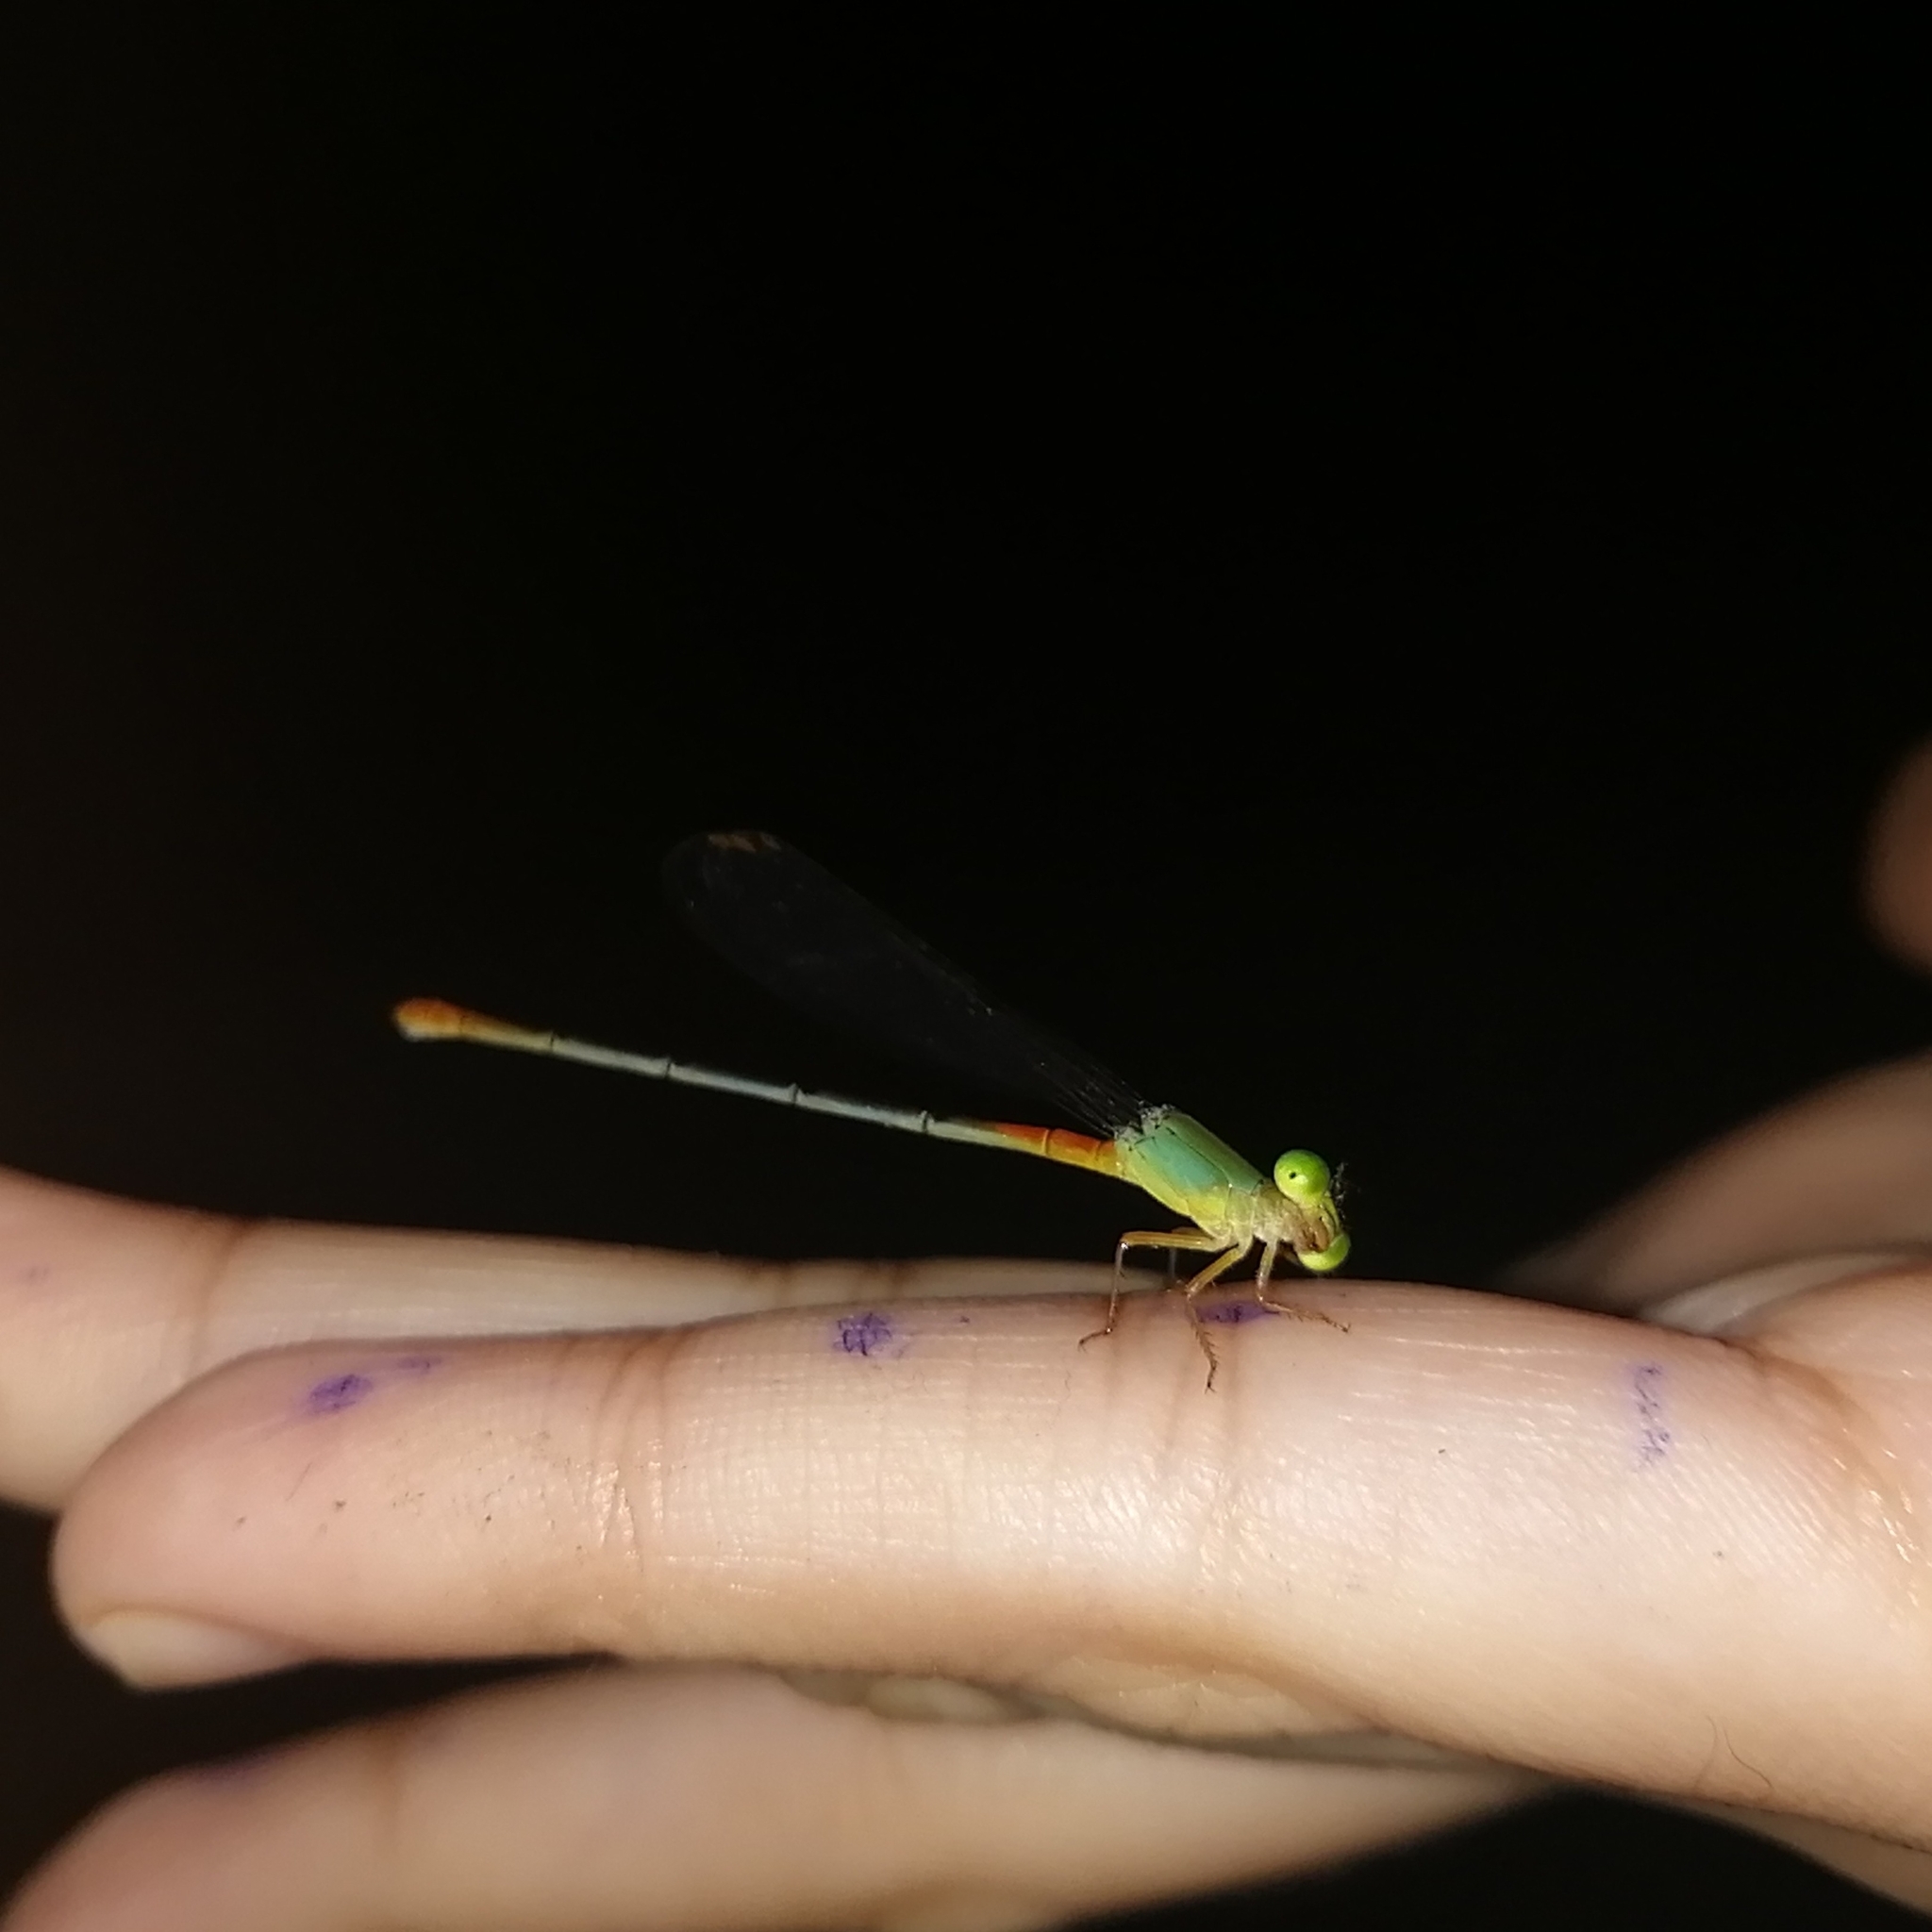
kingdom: Animalia
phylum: Arthropoda
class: Insecta
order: Odonata
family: Coenagrionidae
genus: Ceriagrion
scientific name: Ceriagrion cerinorubellum
